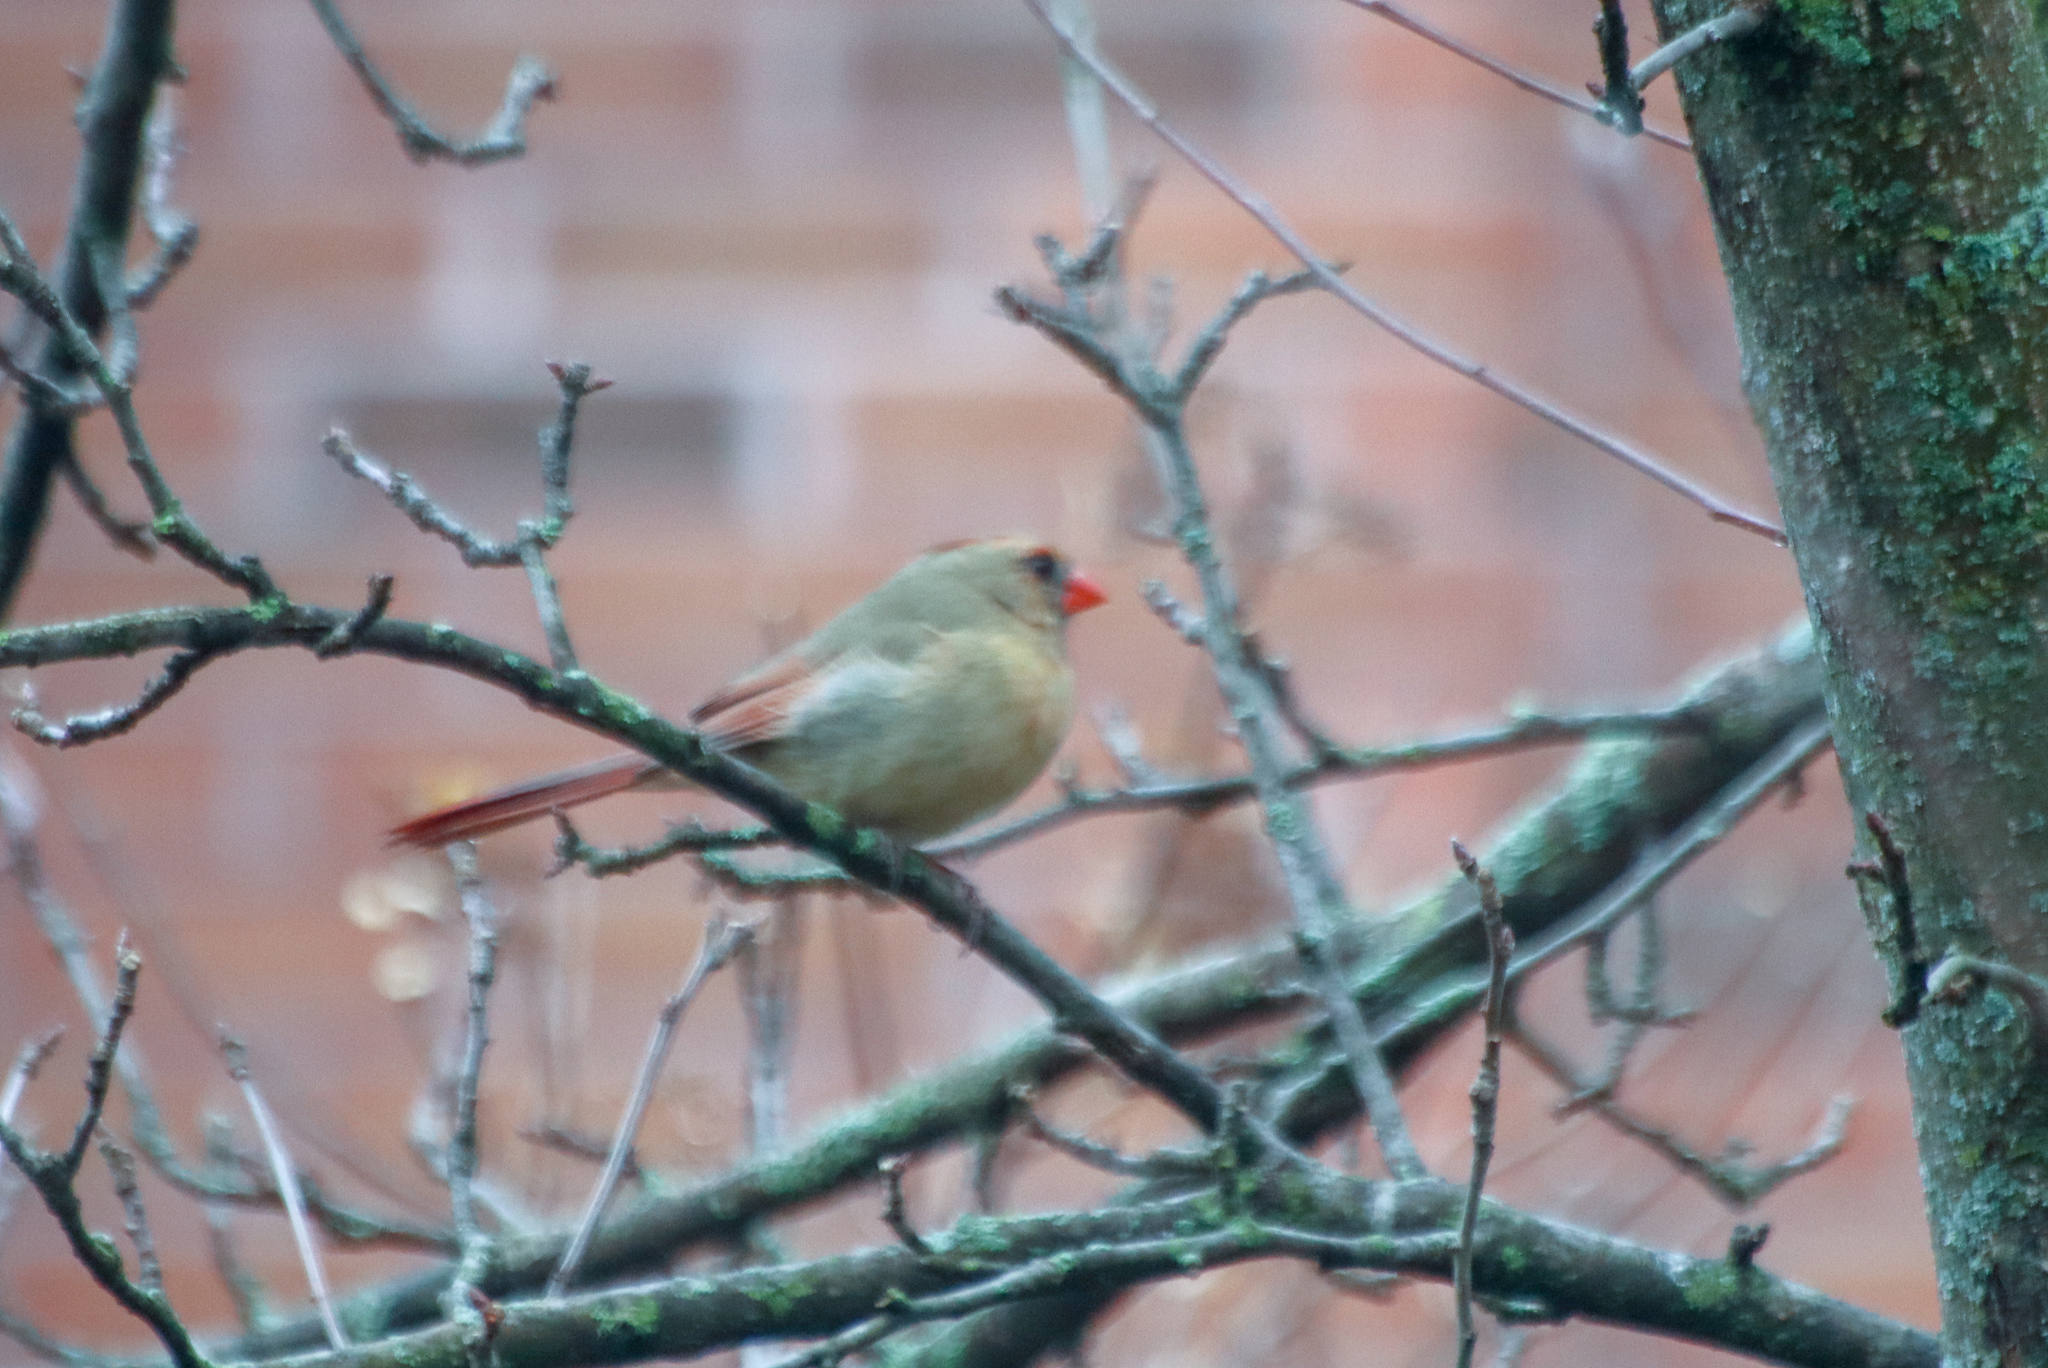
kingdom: Animalia
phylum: Chordata
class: Aves
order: Passeriformes
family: Cardinalidae
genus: Cardinalis
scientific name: Cardinalis cardinalis
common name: Northern cardinal
